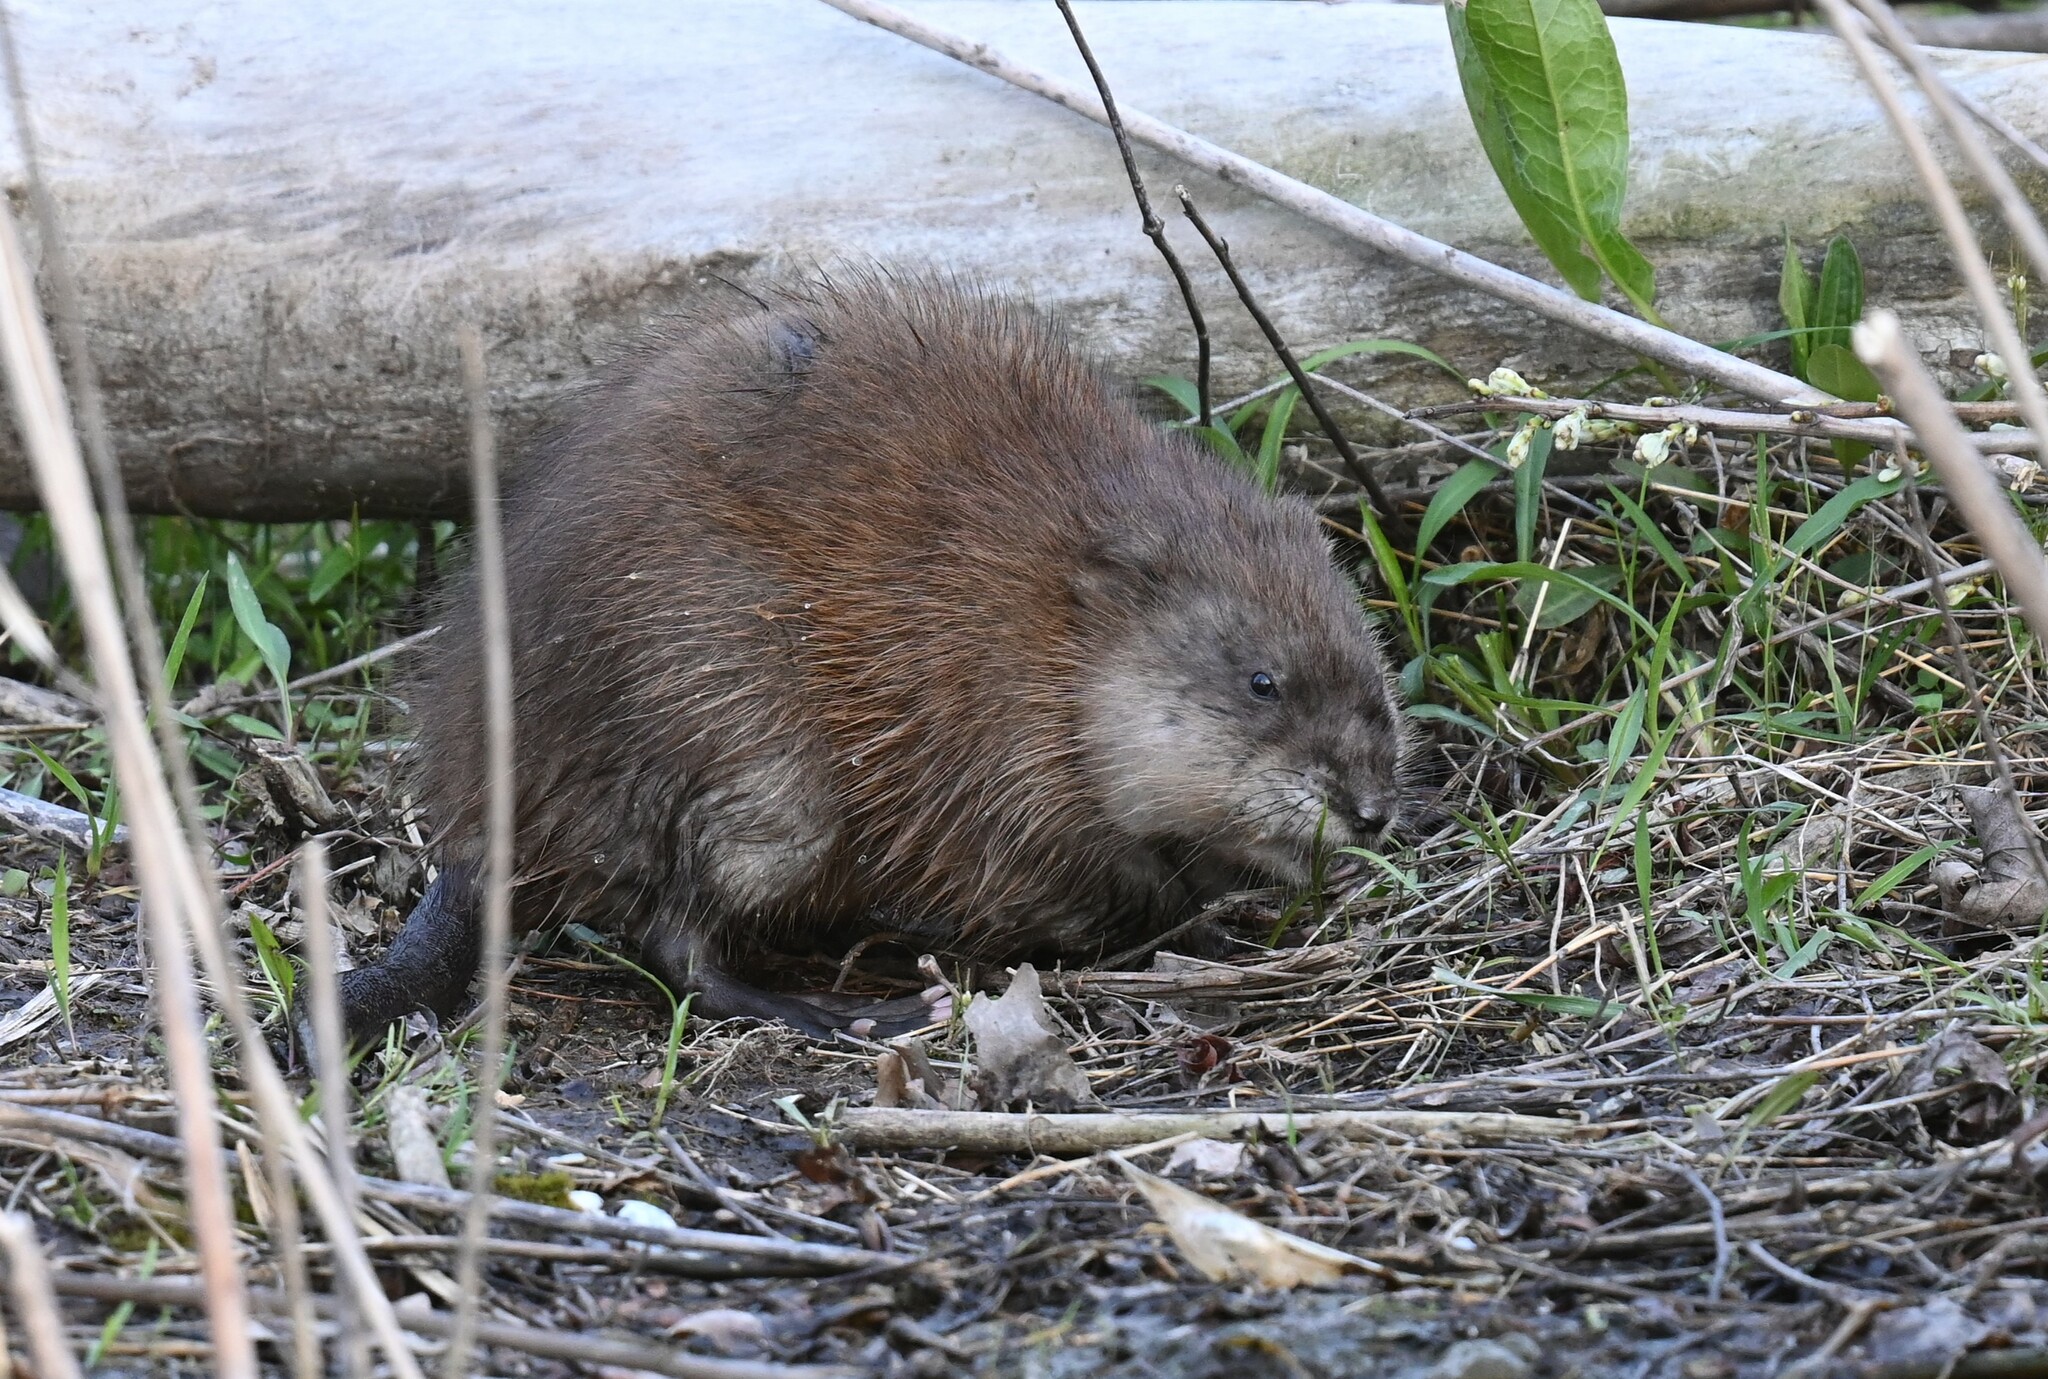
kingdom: Animalia
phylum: Chordata
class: Mammalia
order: Rodentia
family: Cricetidae
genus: Ondatra
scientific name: Ondatra zibethicus
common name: Muskrat
